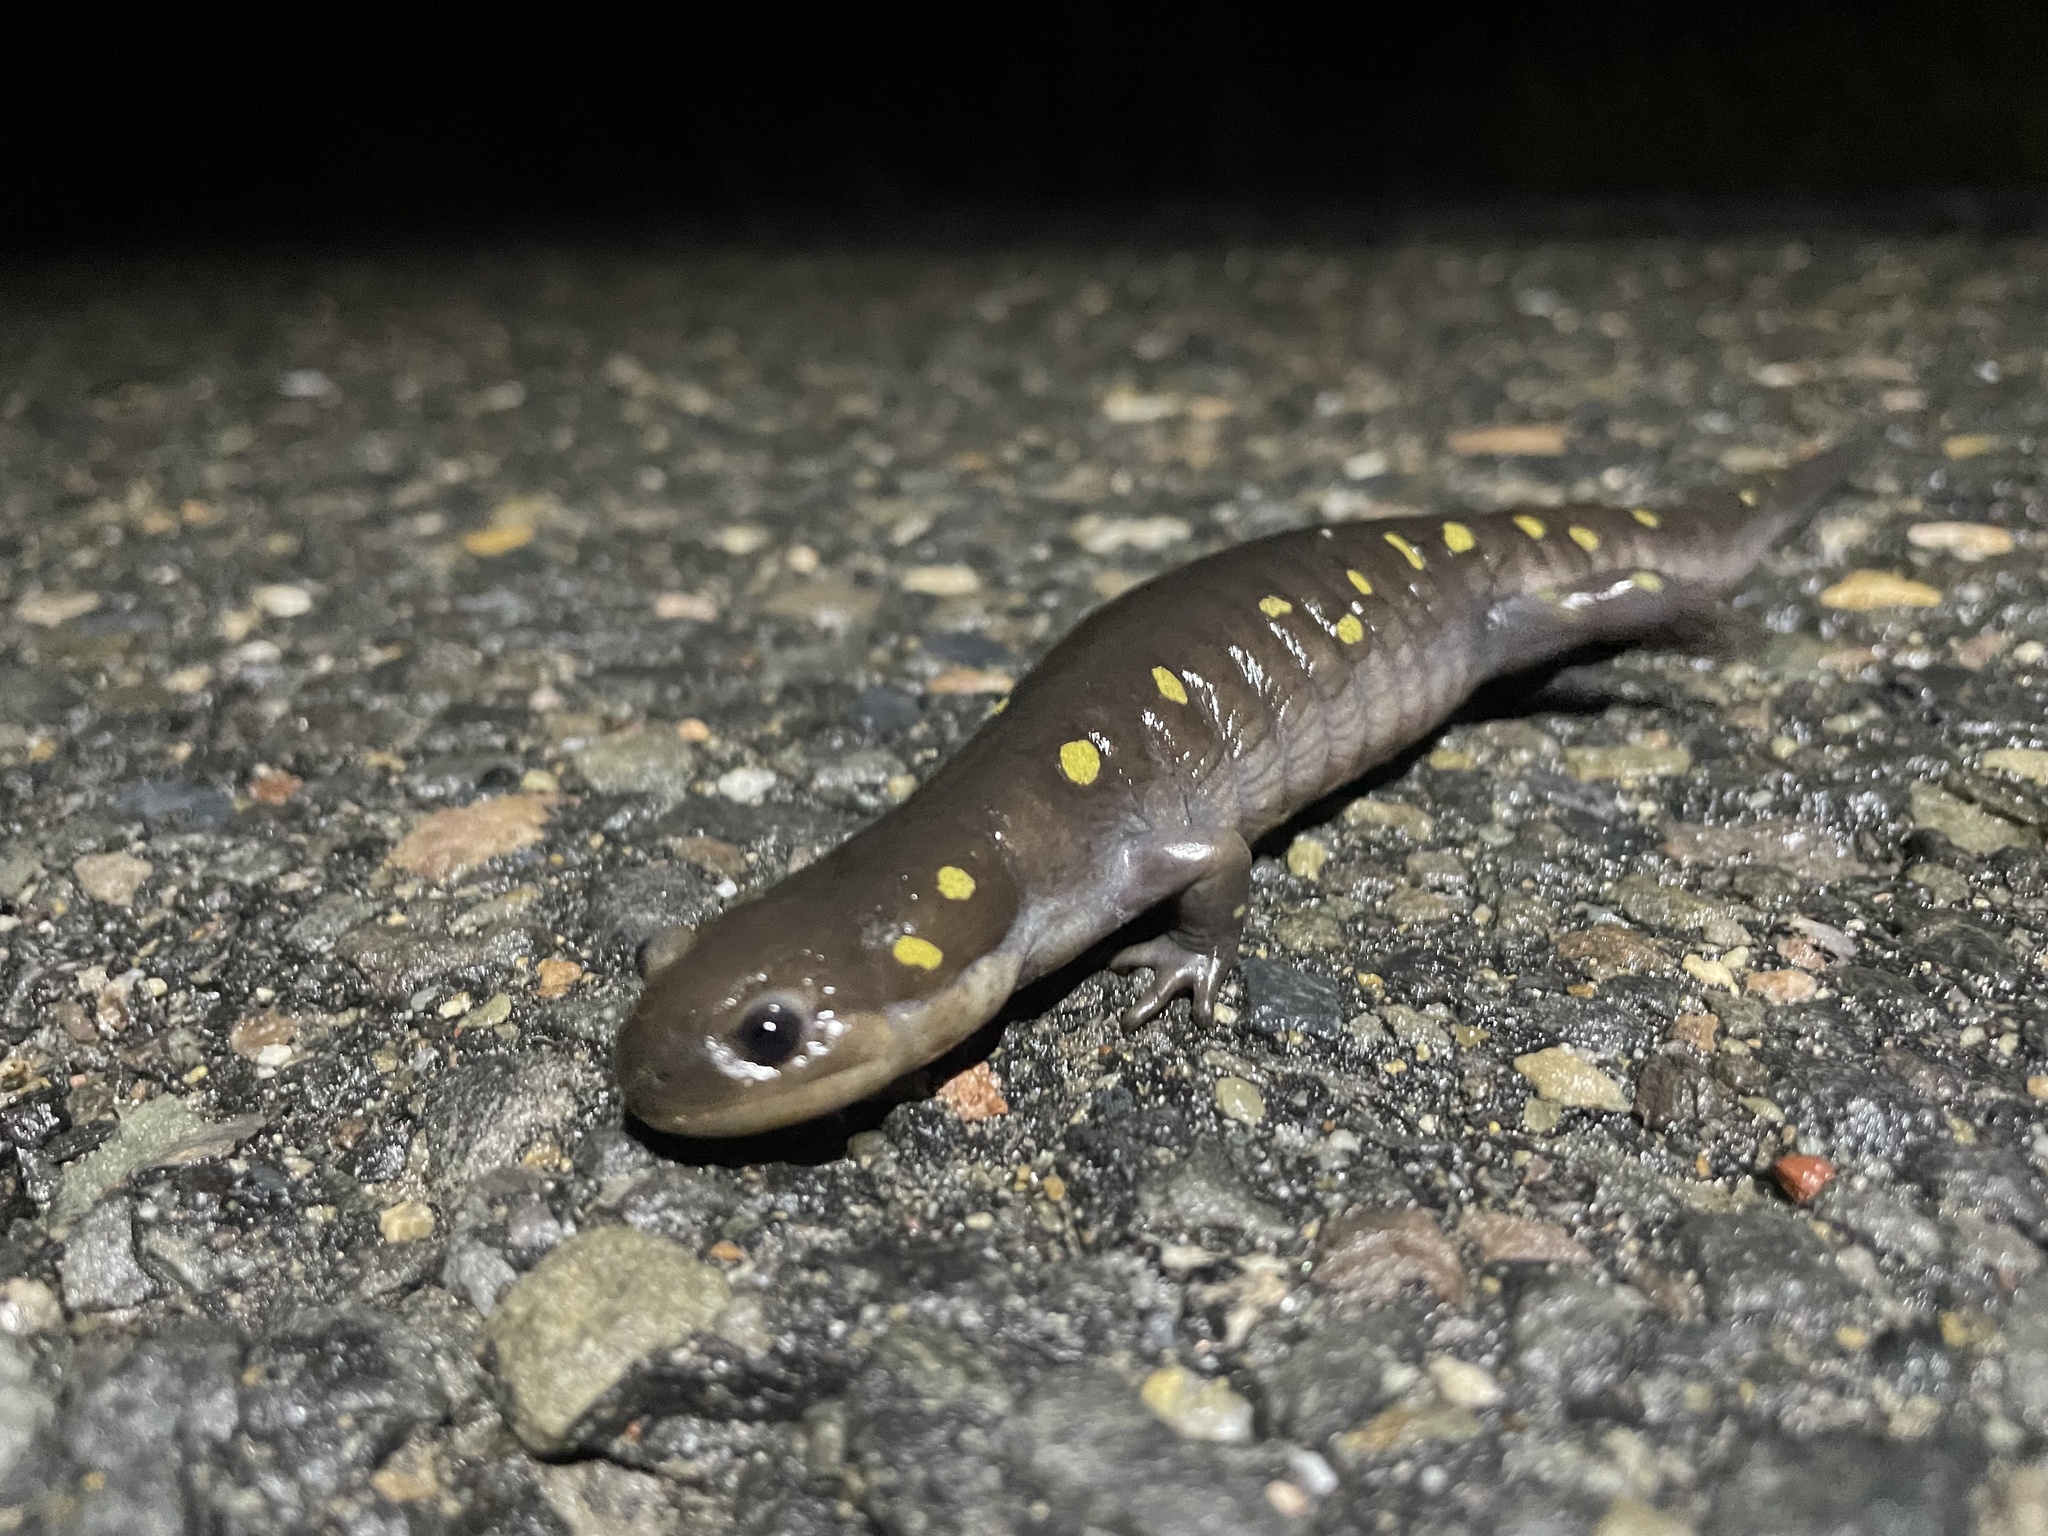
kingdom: Animalia
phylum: Chordata
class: Amphibia
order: Caudata
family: Ambystomatidae
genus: Ambystoma
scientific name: Ambystoma maculatum
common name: Spotted salamander
